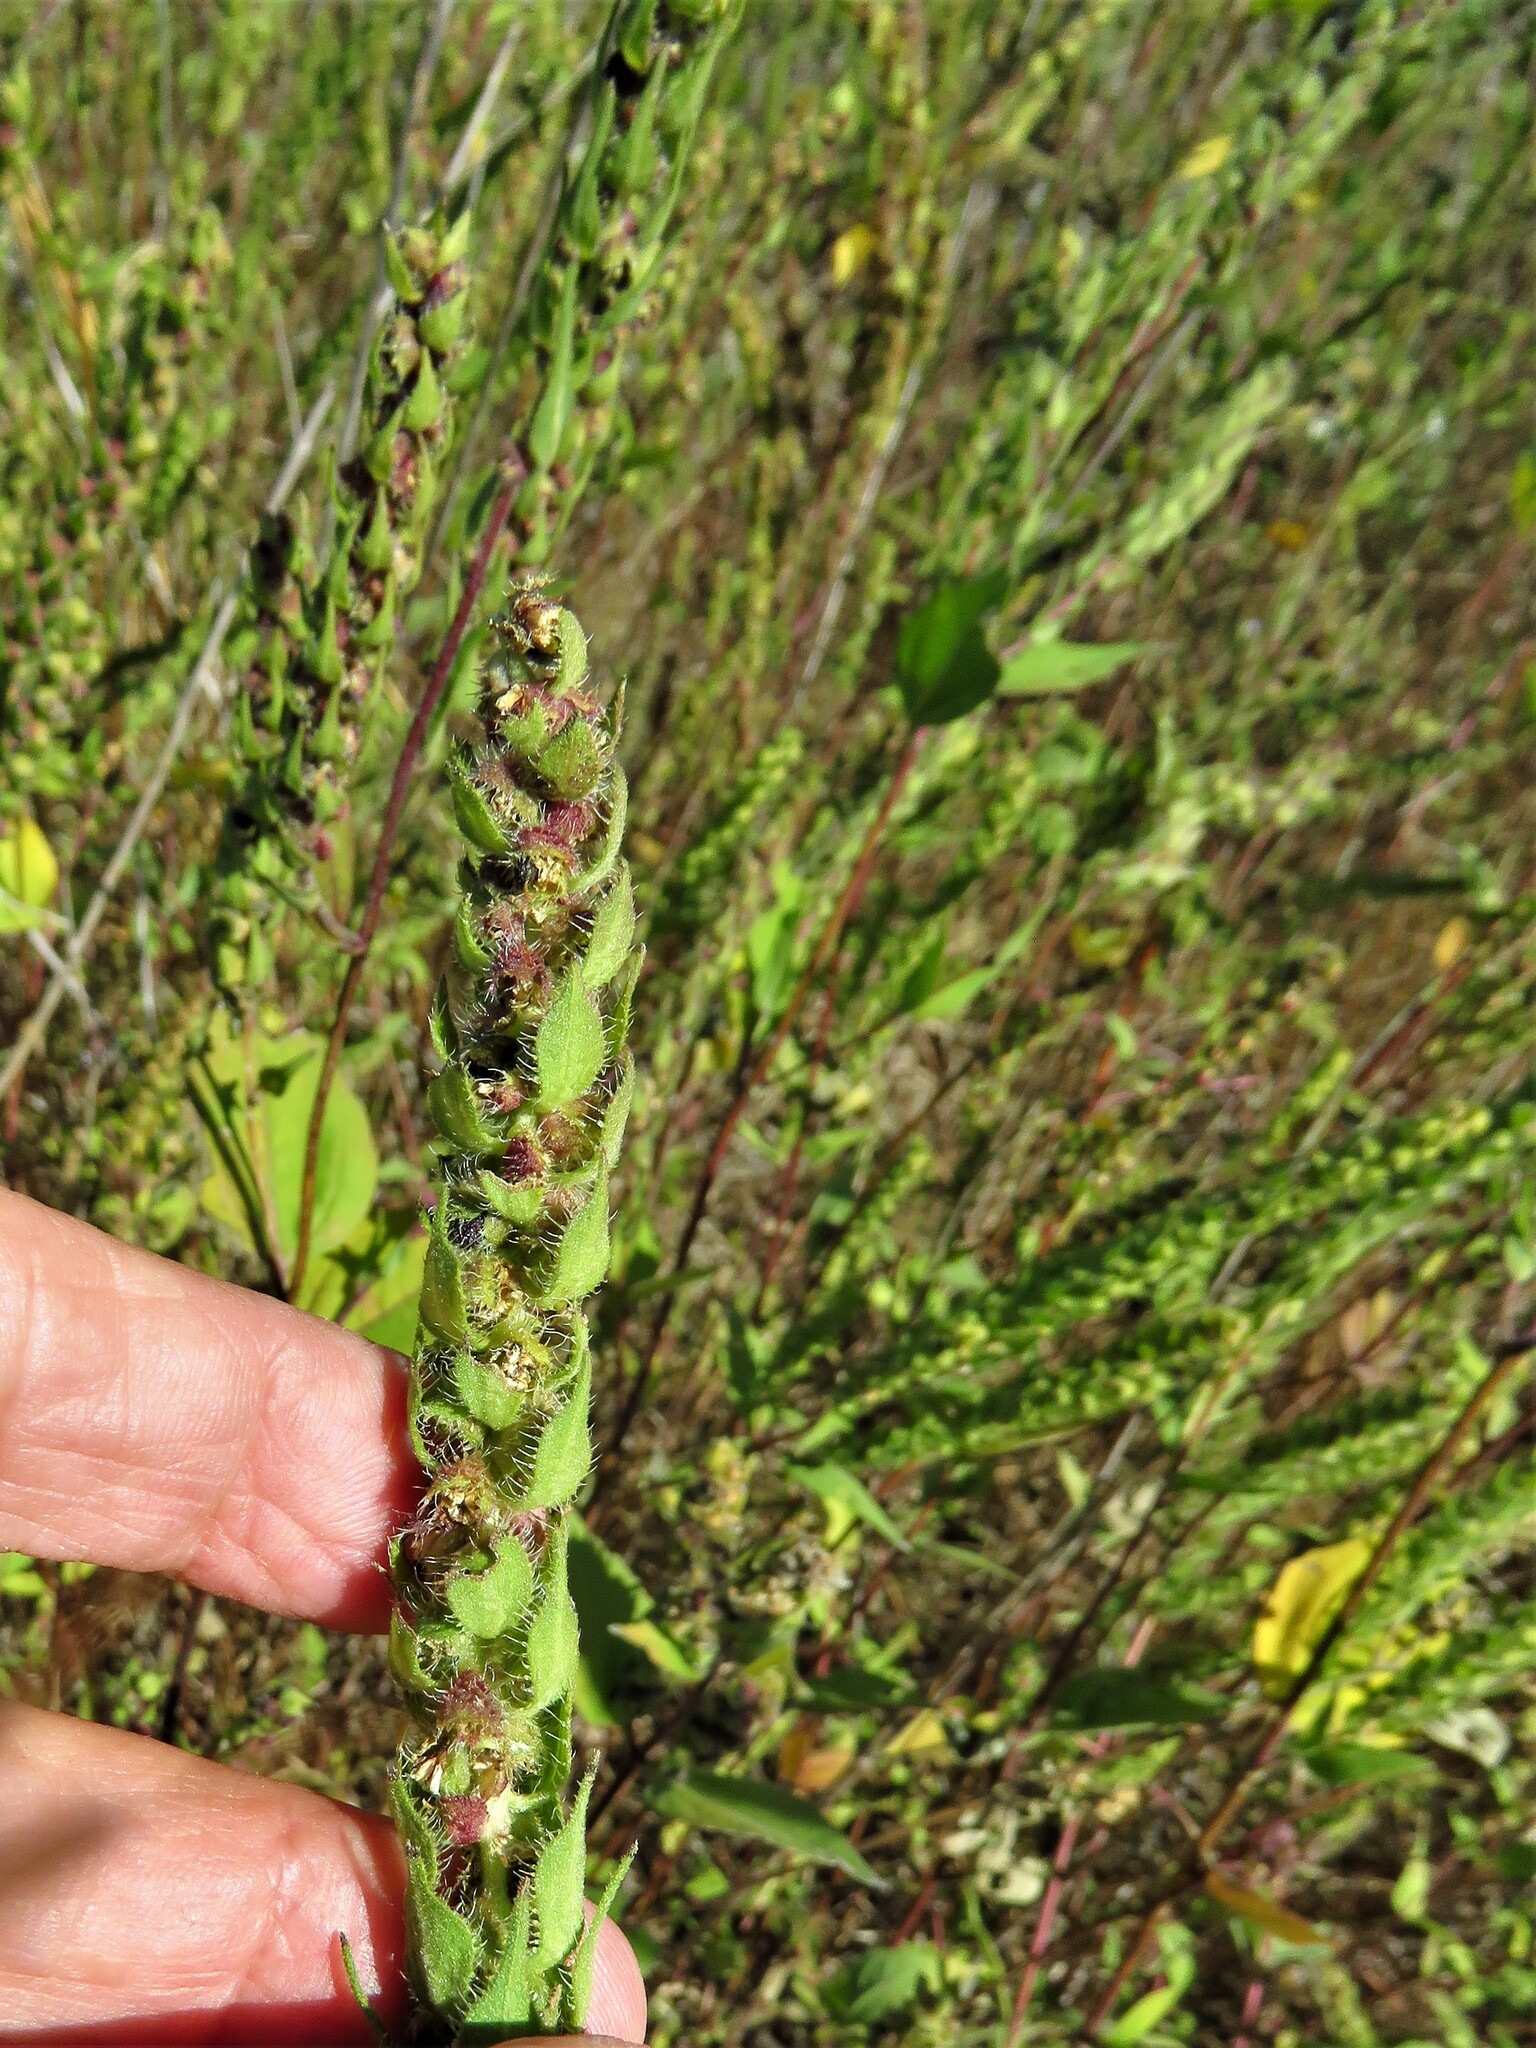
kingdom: Plantae
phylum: Tracheophyta
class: Magnoliopsida
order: Asterales
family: Asteraceae
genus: Iva
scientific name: Iva annua
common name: Marsh-elder
